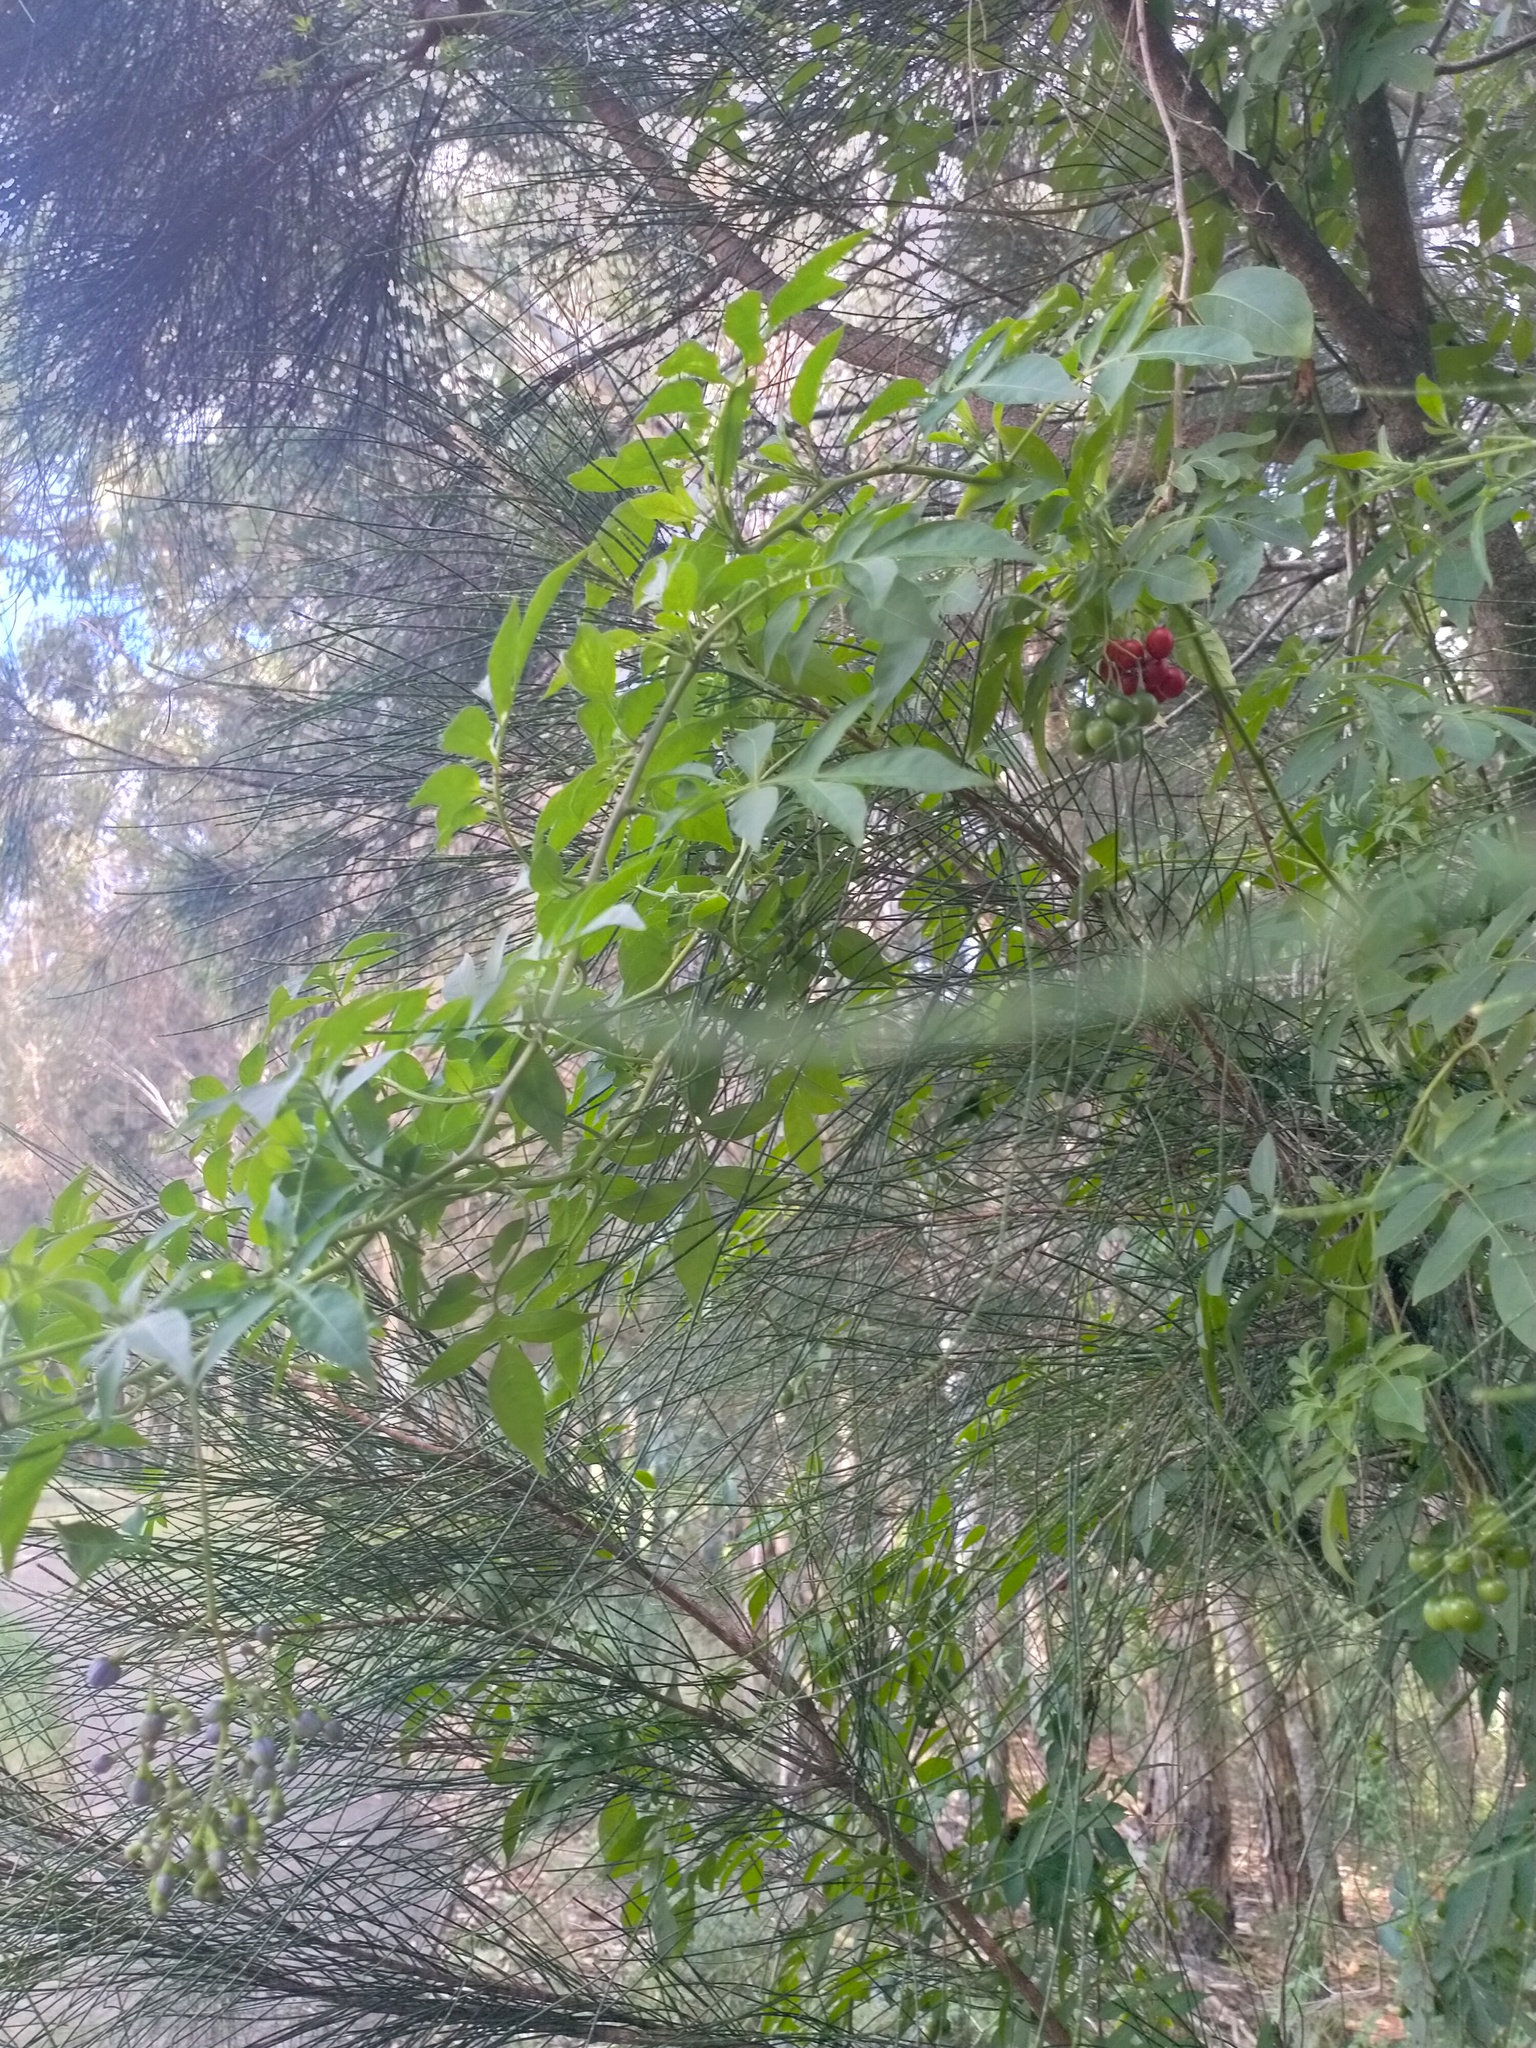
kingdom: Plantae
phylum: Tracheophyta
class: Magnoliopsida
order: Solanales
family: Solanaceae
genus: Solanum
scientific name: Solanum seaforthianum
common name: Brazilian nightshade
